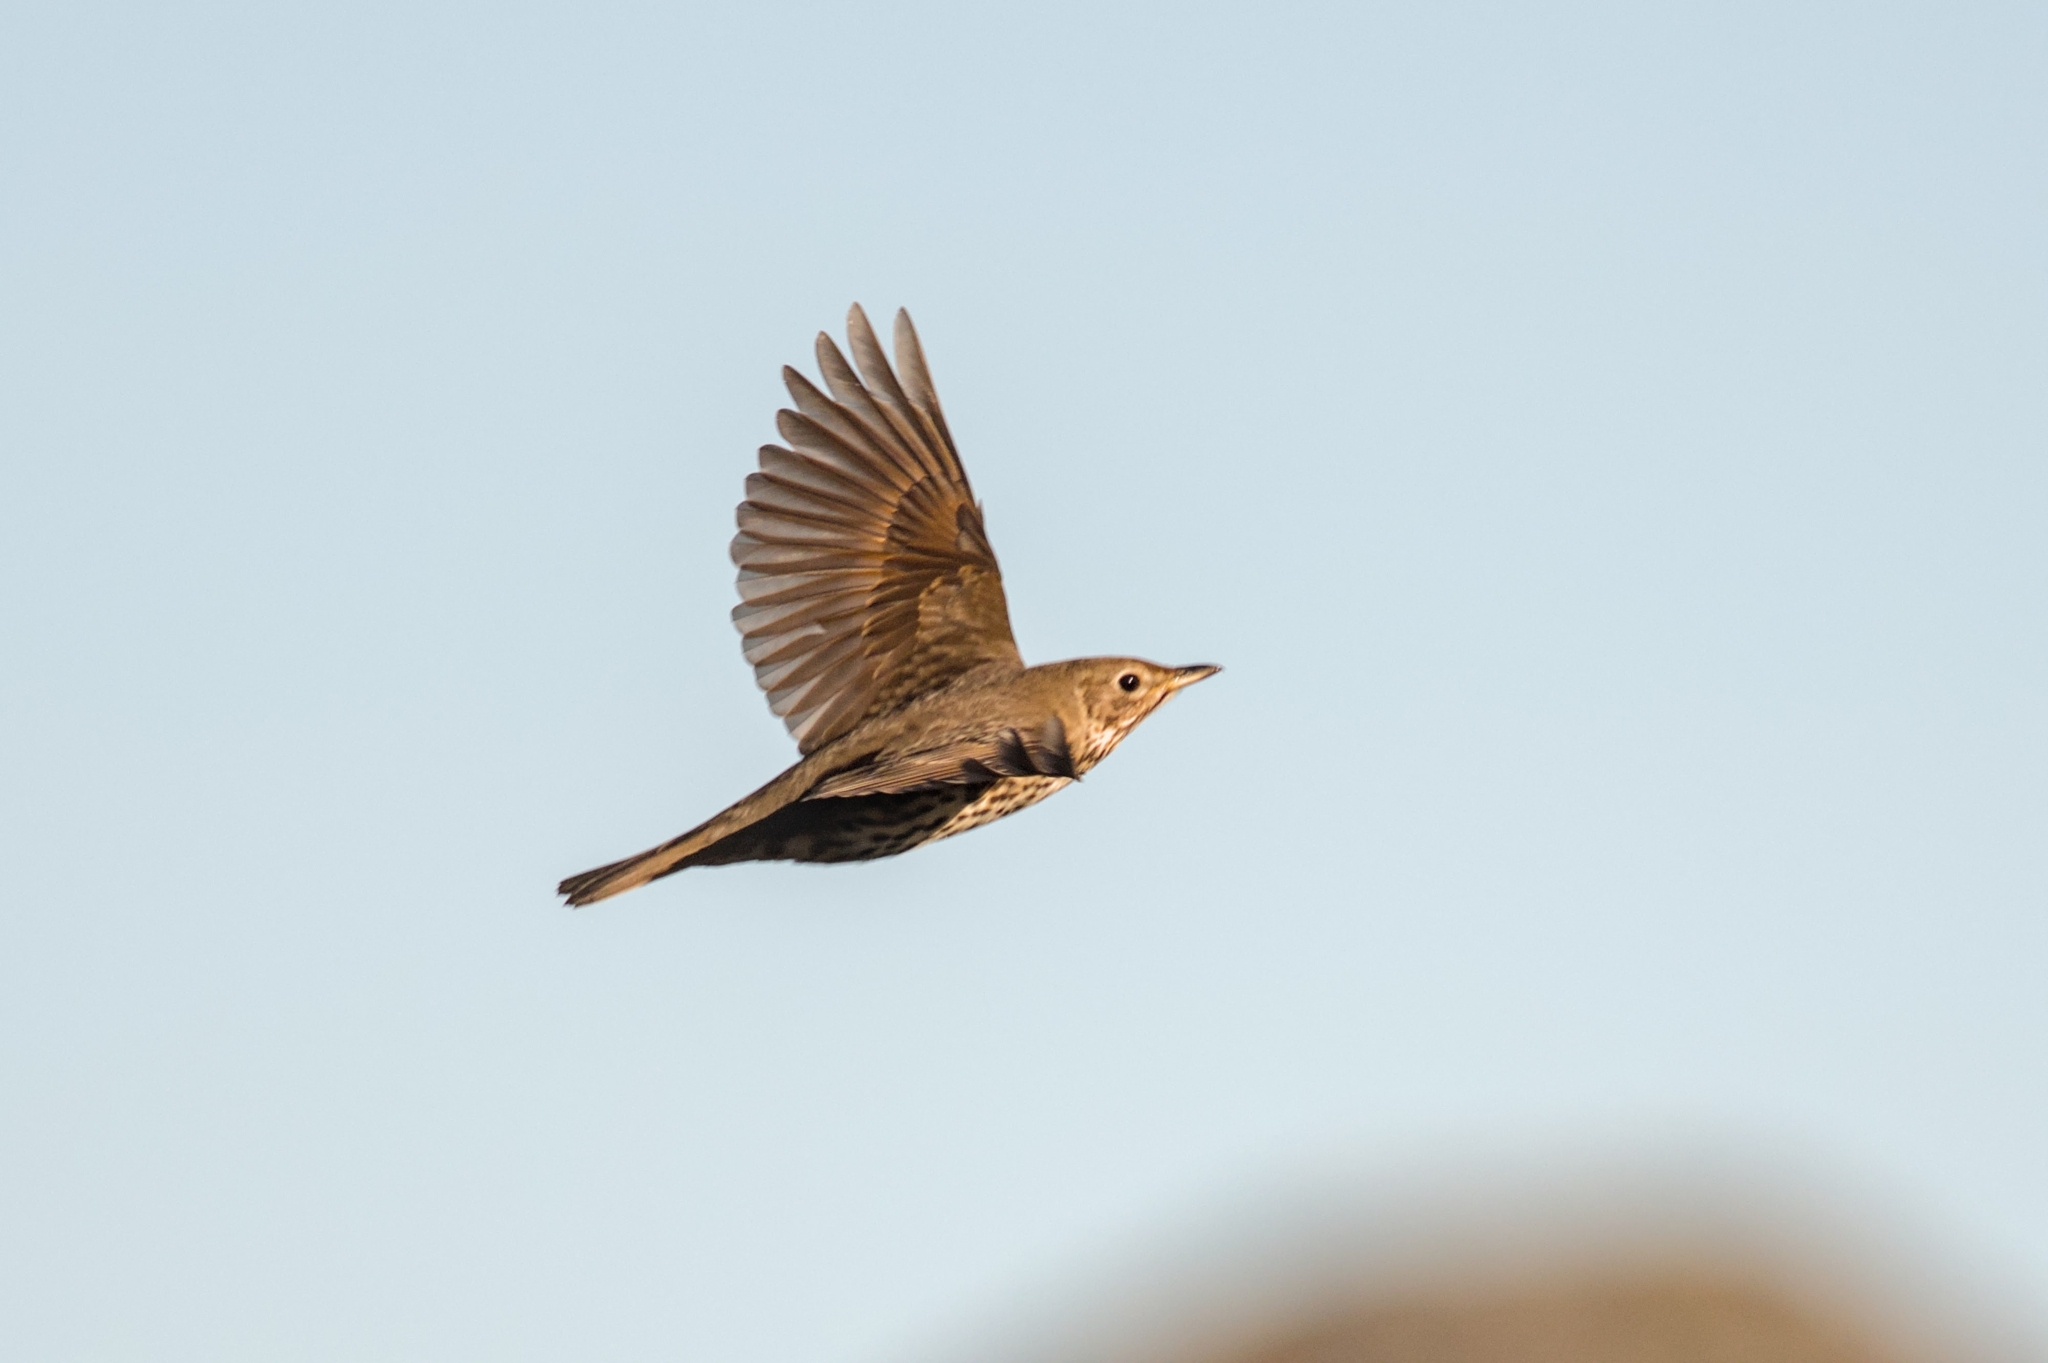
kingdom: Animalia
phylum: Chordata
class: Aves
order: Passeriformes
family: Turdidae
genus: Turdus
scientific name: Turdus philomelos
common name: Song thrush
